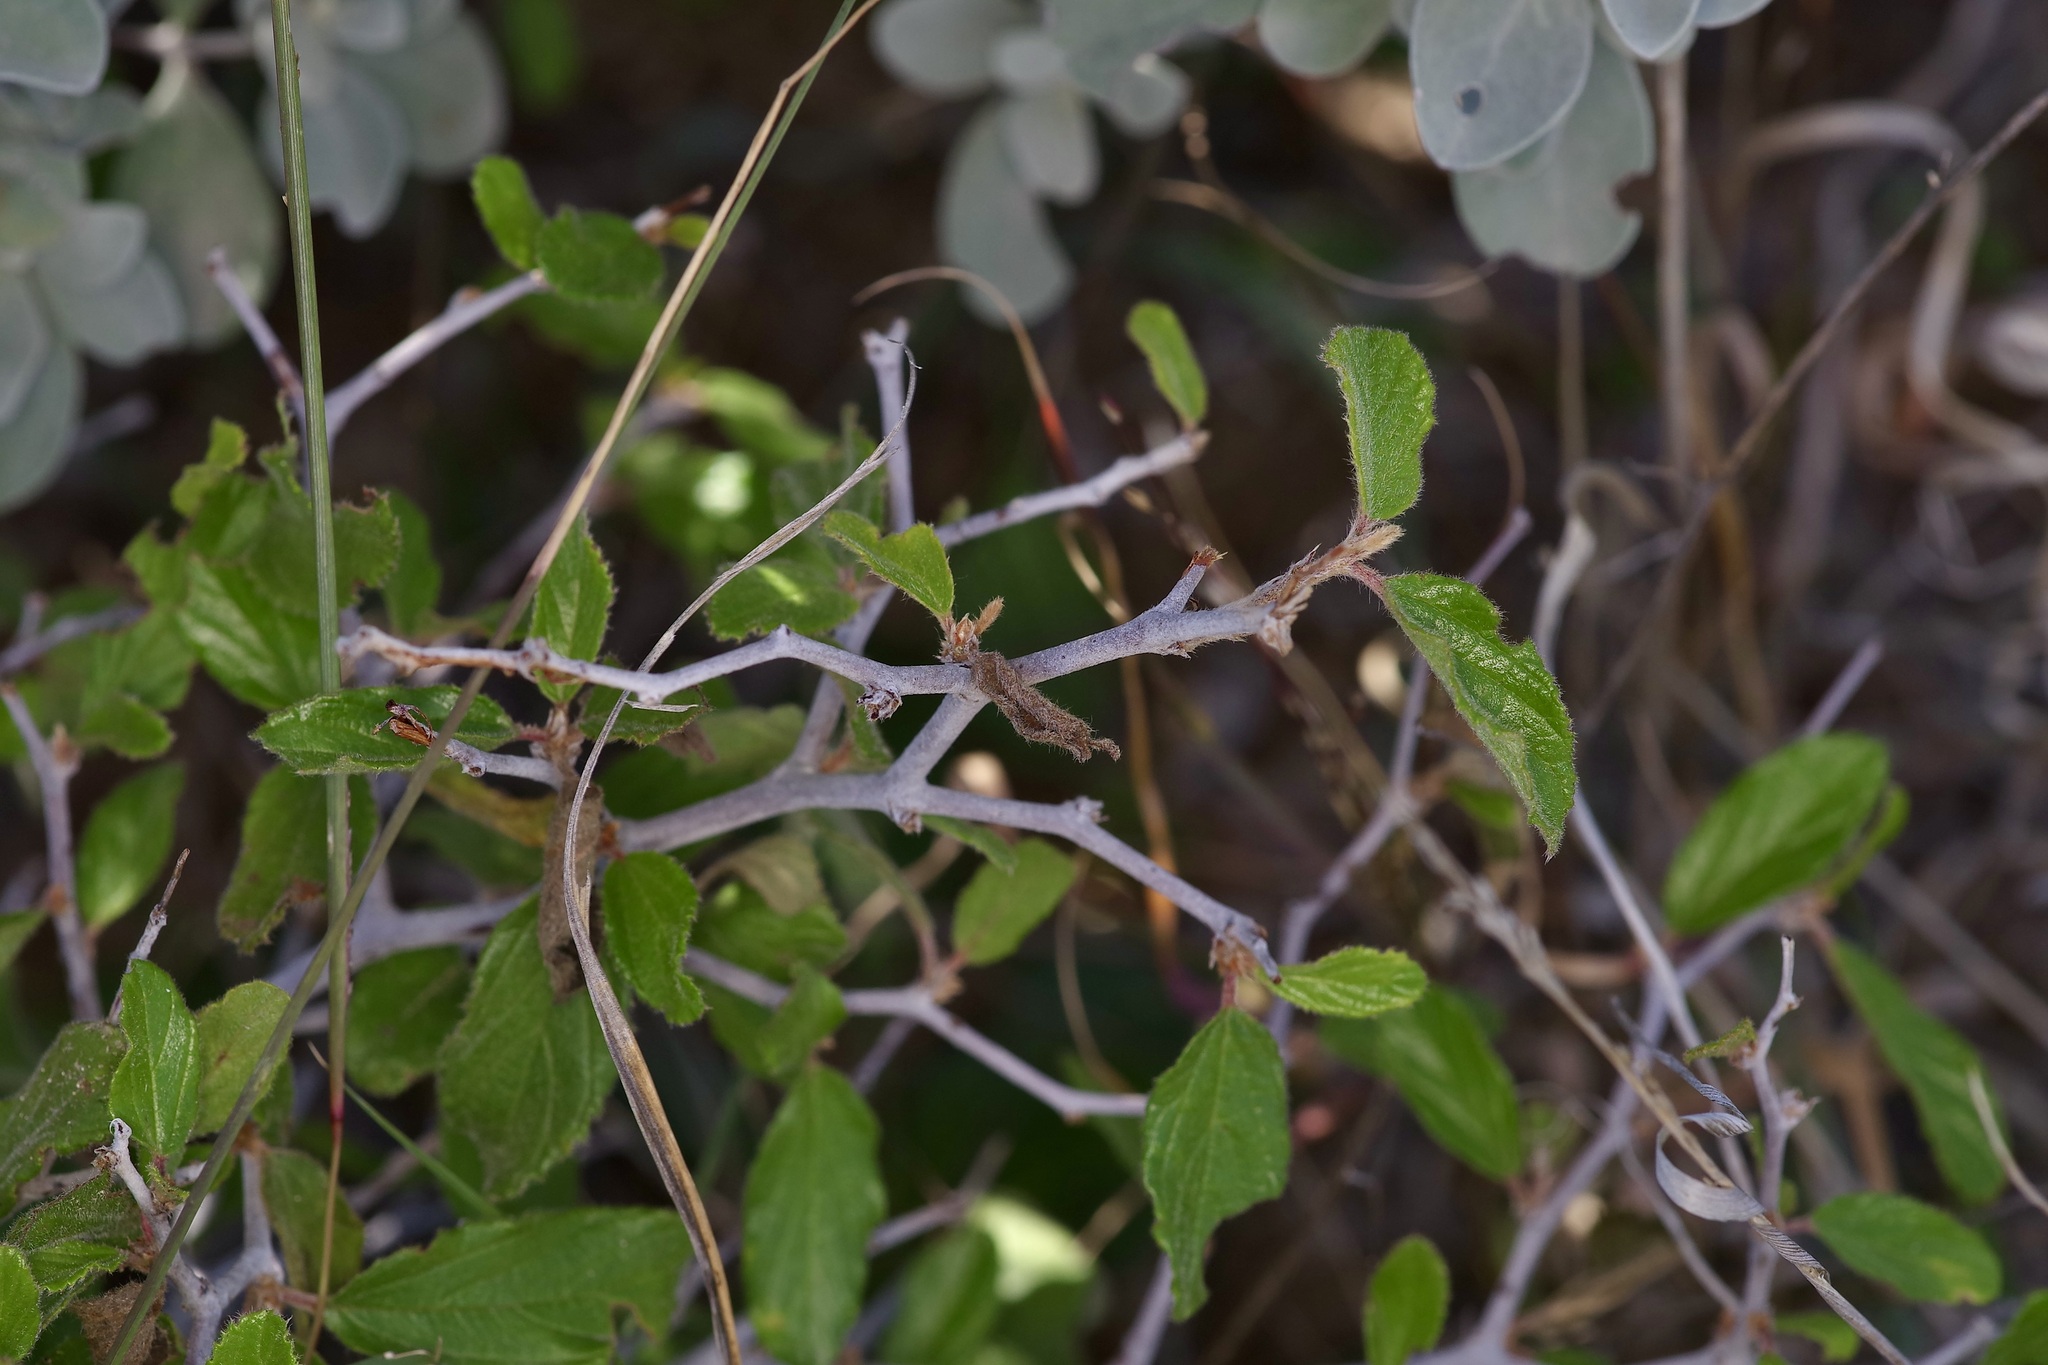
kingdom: Plantae
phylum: Tracheophyta
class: Magnoliopsida
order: Rosales
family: Rhamnaceae
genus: Colubrina
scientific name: Colubrina texensis
